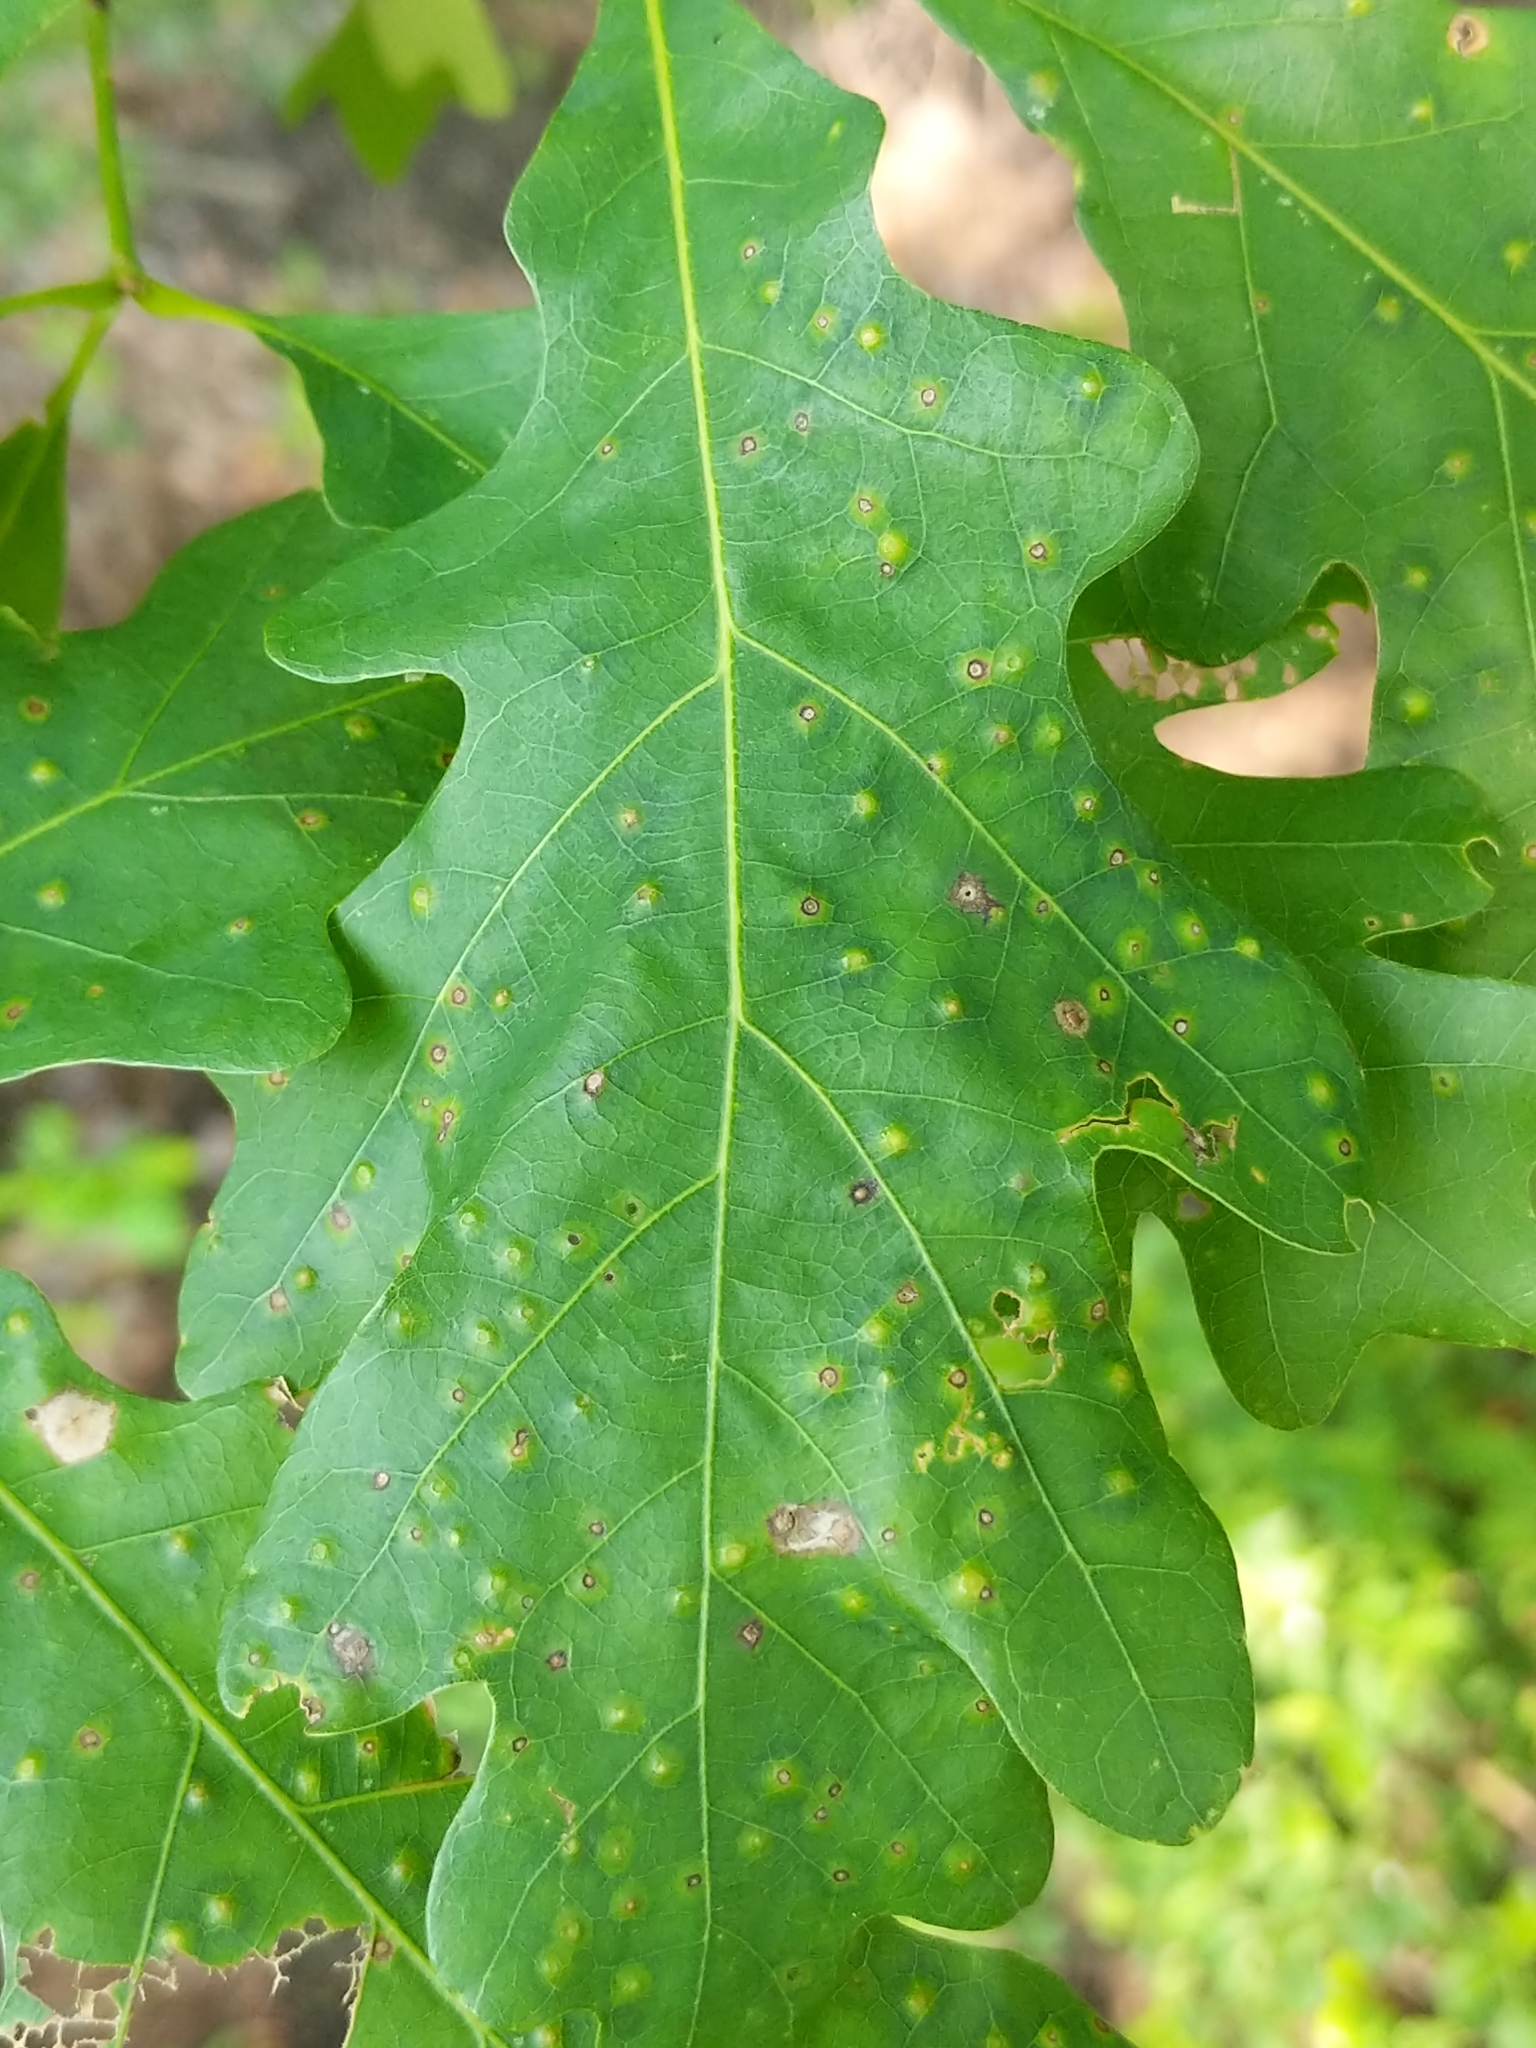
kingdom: Animalia
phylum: Arthropoda
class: Insecta
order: Hymenoptera
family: Cynipidae
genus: Neuroterus
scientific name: Neuroterus
